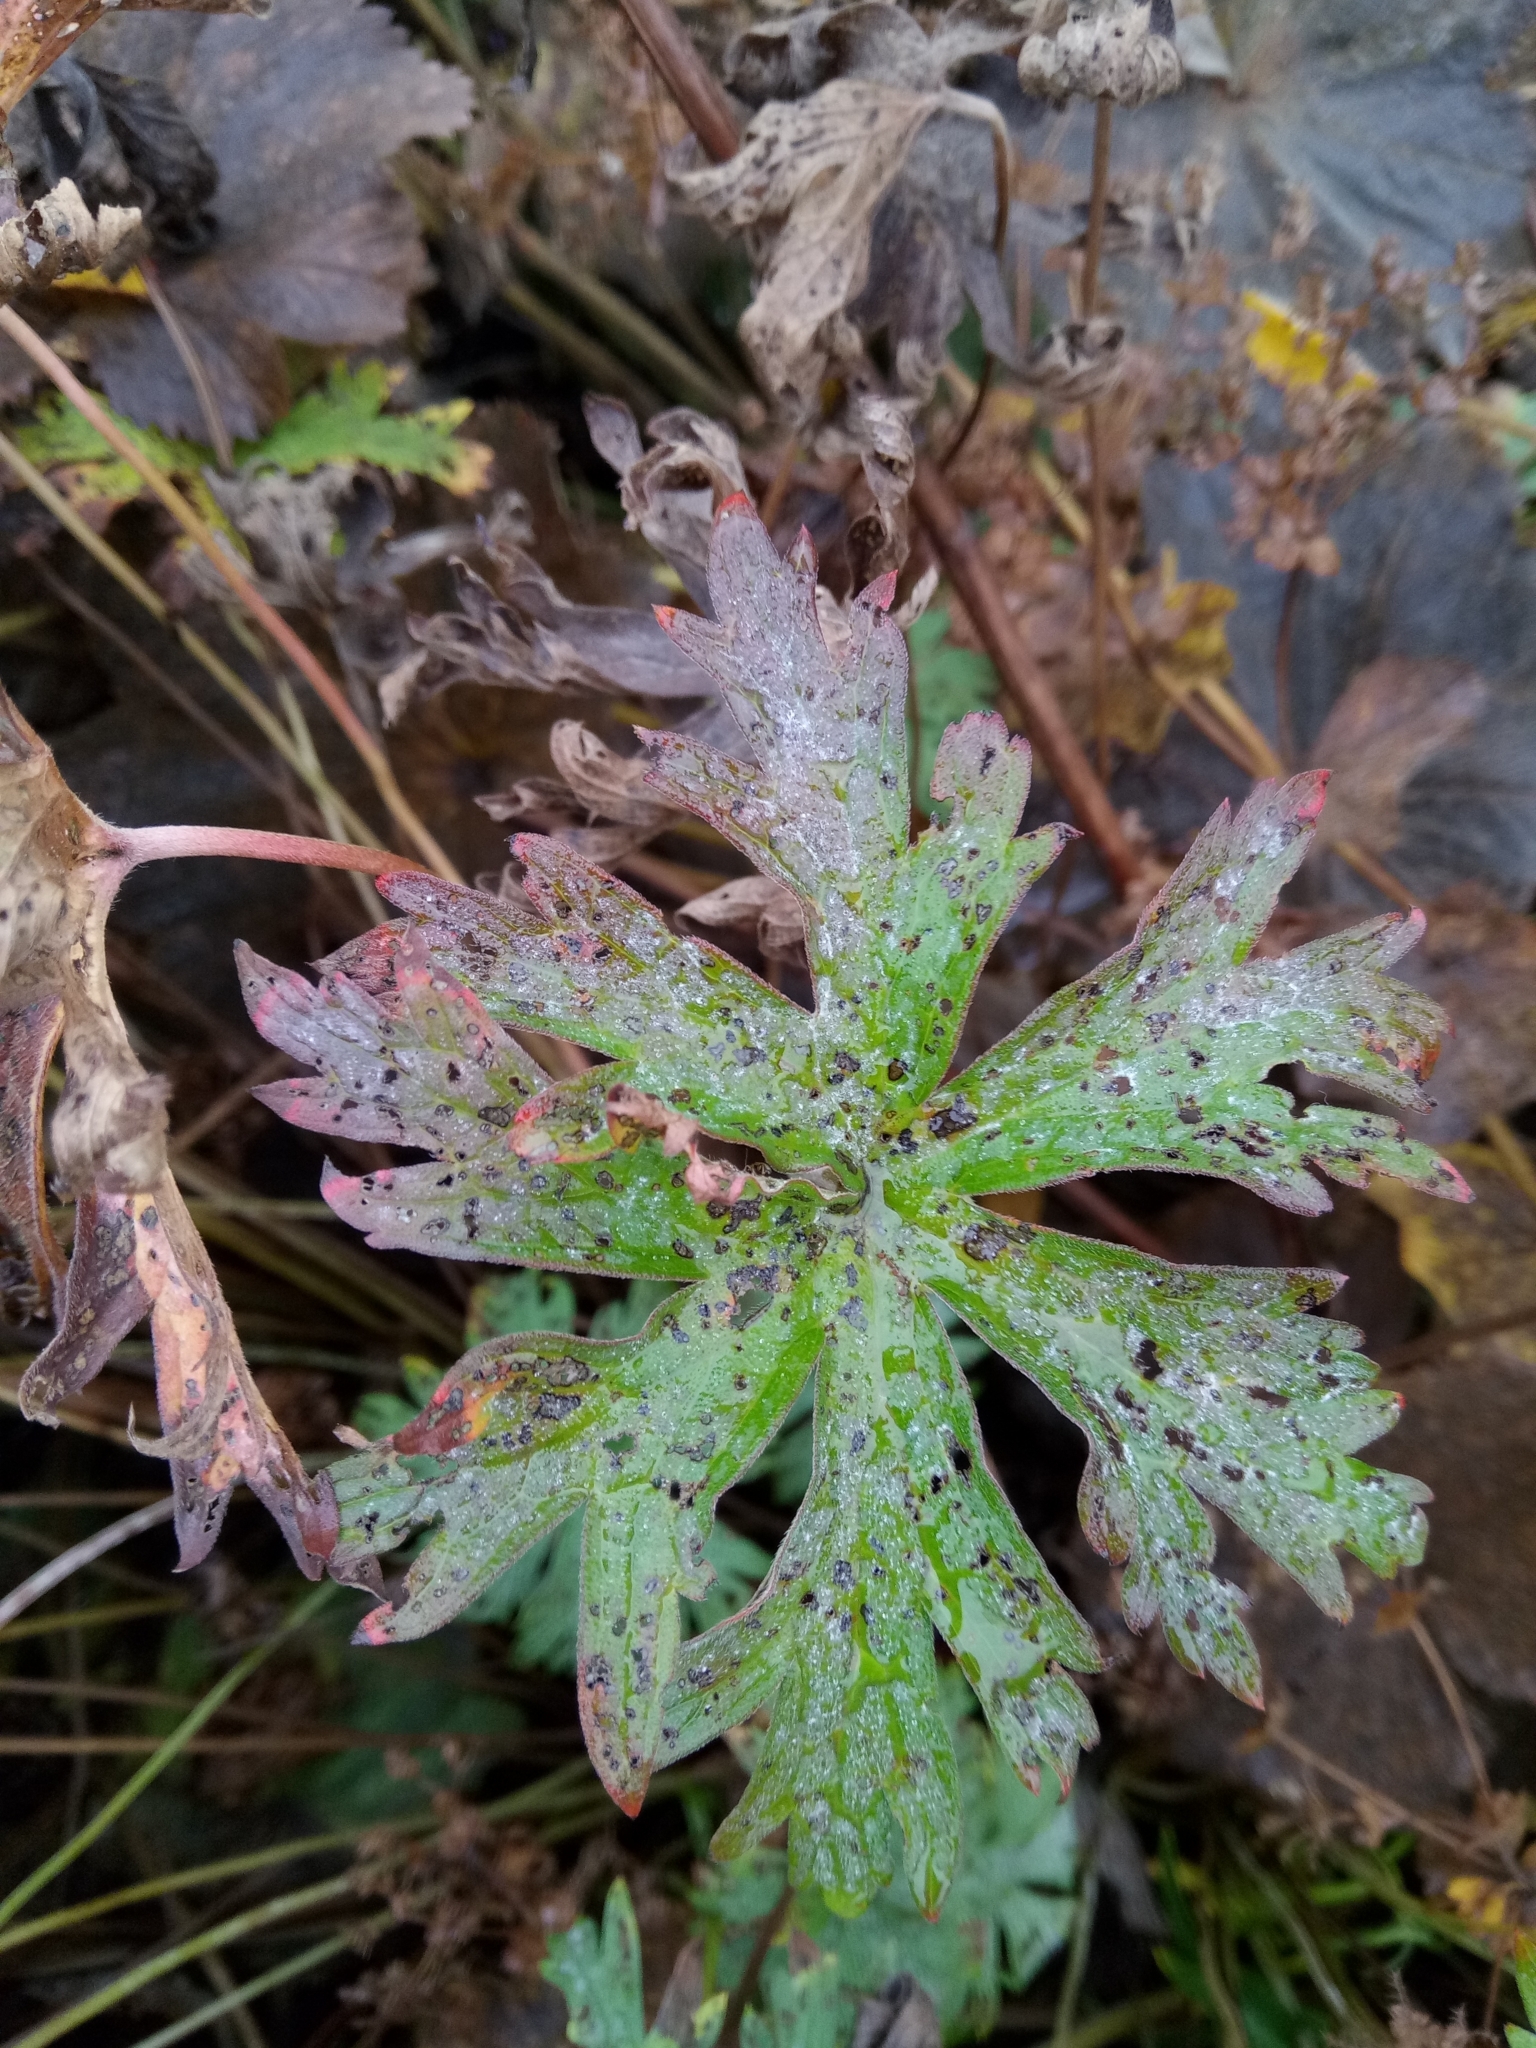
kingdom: Plantae
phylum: Tracheophyta
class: Magnoliopsida
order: Geraniales
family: Geraniaceae
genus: Geranium
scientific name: Geranium pratense
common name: Meadow crane's-bill
